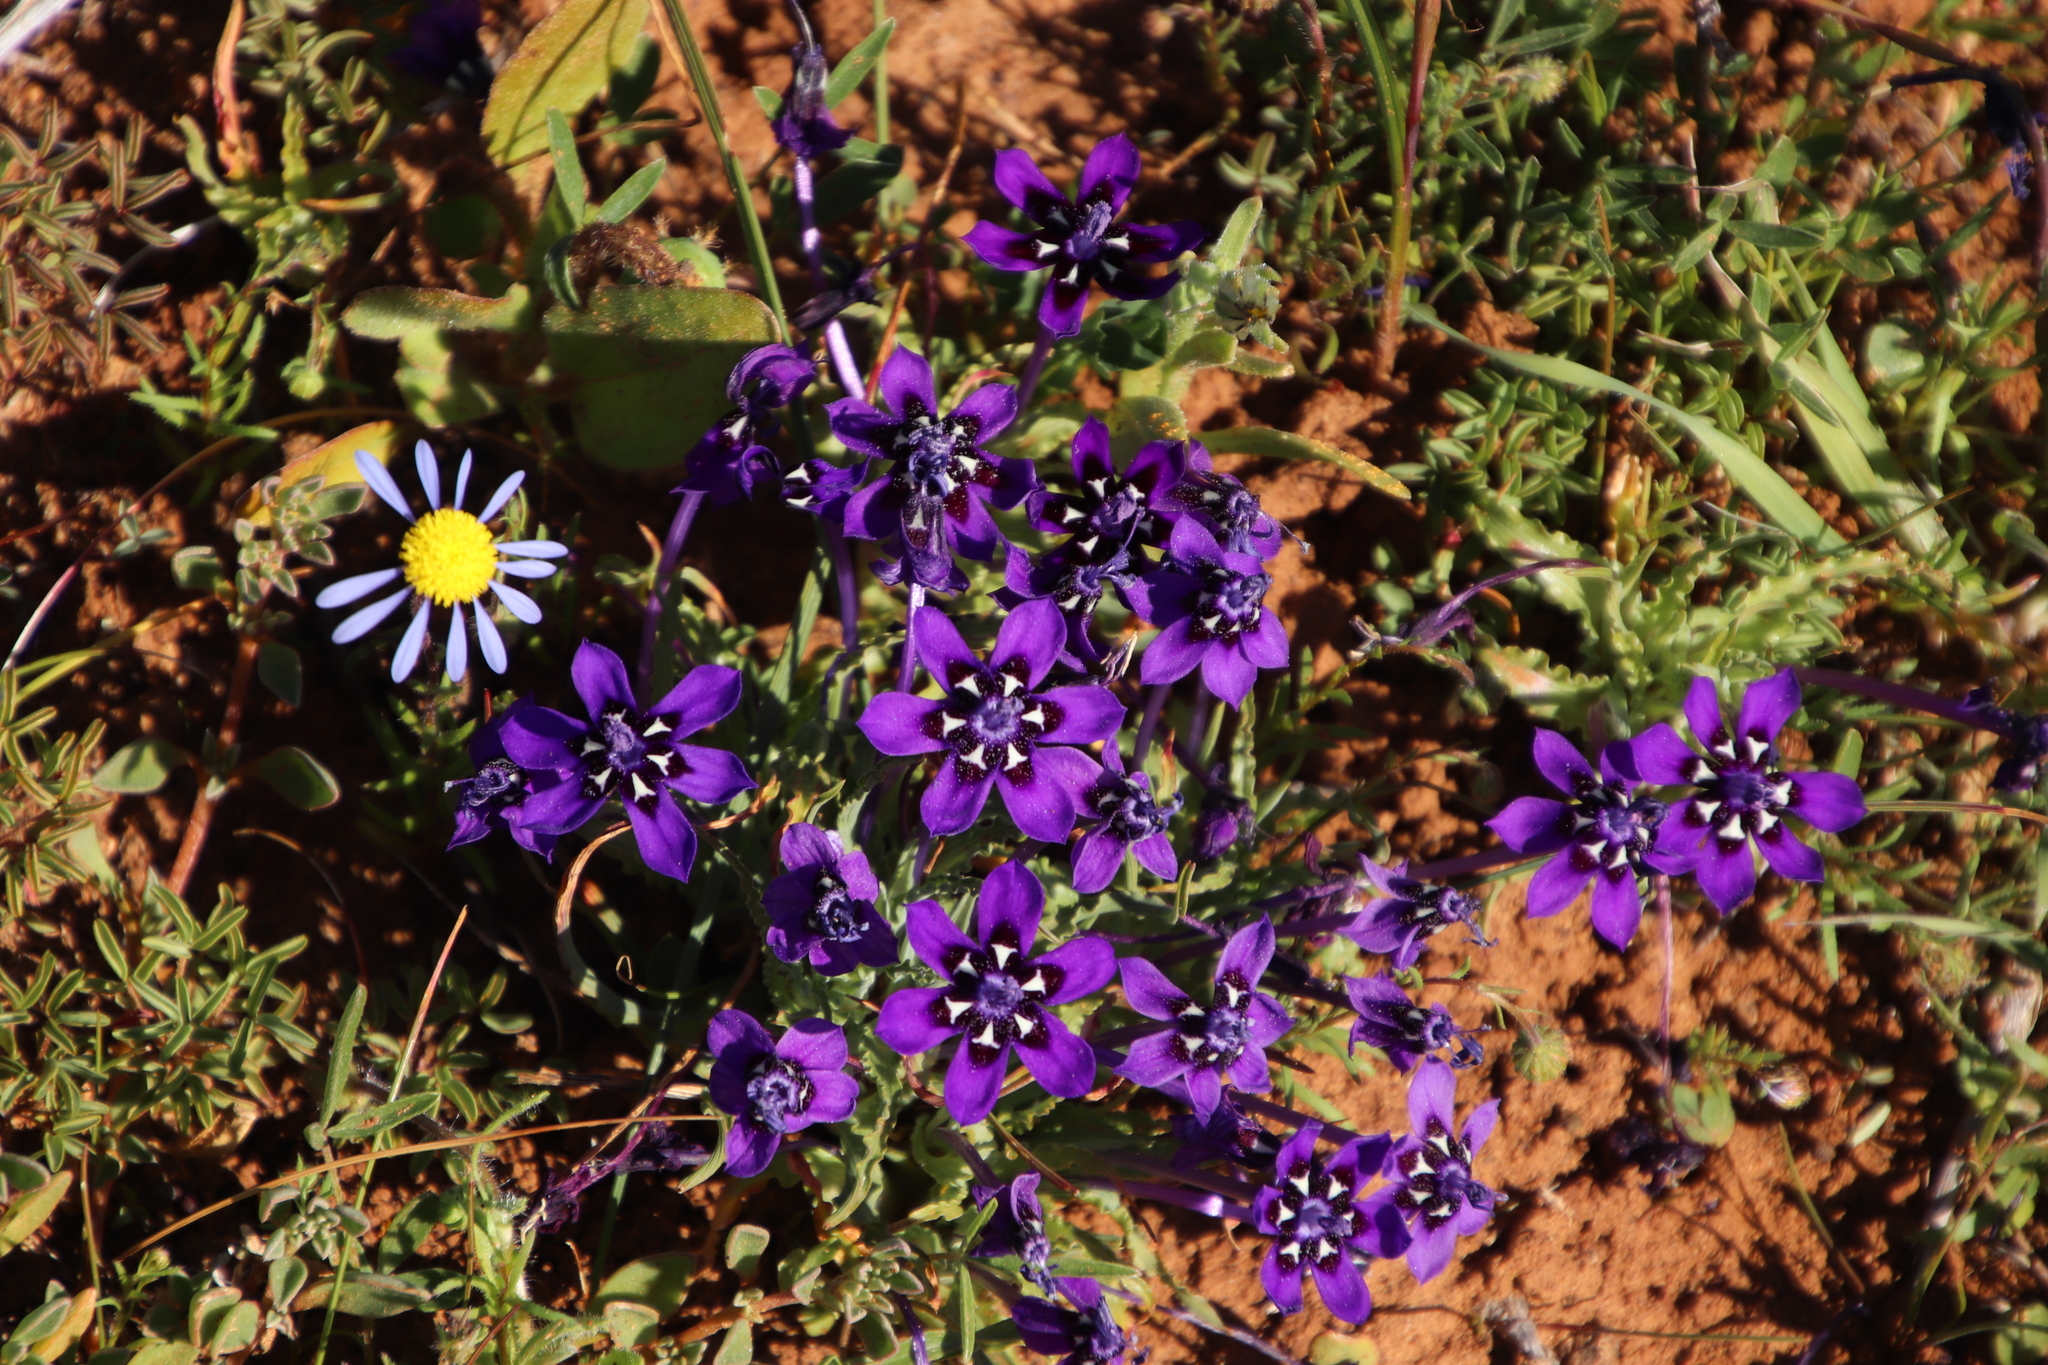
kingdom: Plantae
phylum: Tracheophyta
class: Liliopsida
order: Asparagales
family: Iridaceae
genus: Lapeirousia
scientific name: Lapeirousia oreogena
